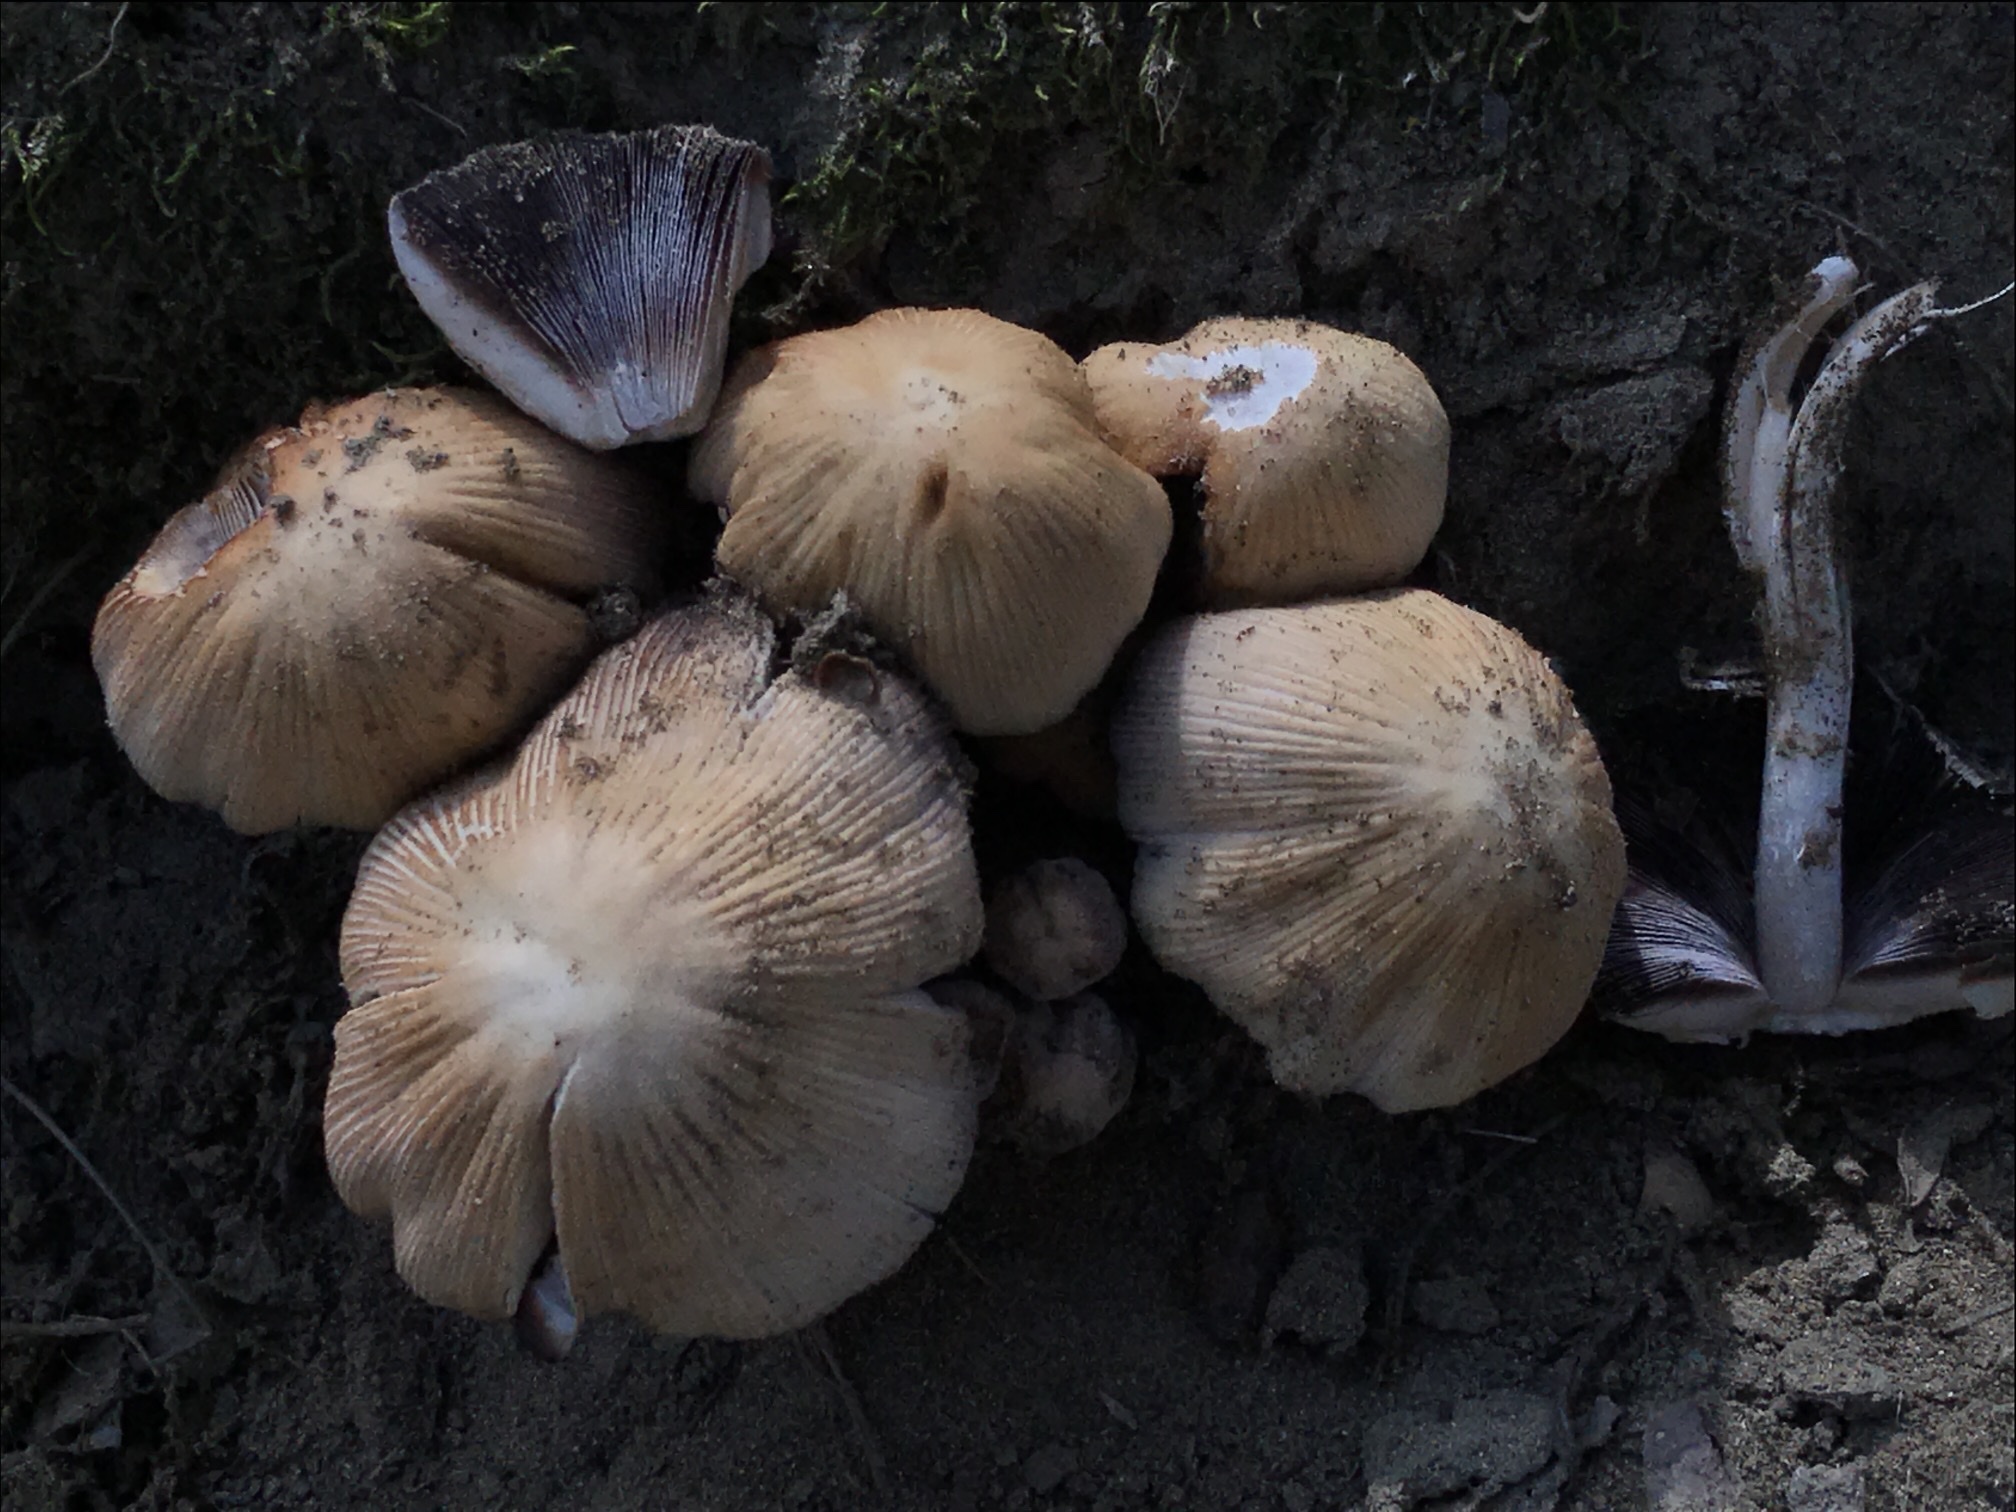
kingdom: Fungi
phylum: Basidiomycota
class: Agaricomycetes
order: Agaricales
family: Psathyrellaceae
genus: Coprinellus
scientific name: Coprinellus micaceus
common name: Glistening ink-cap
